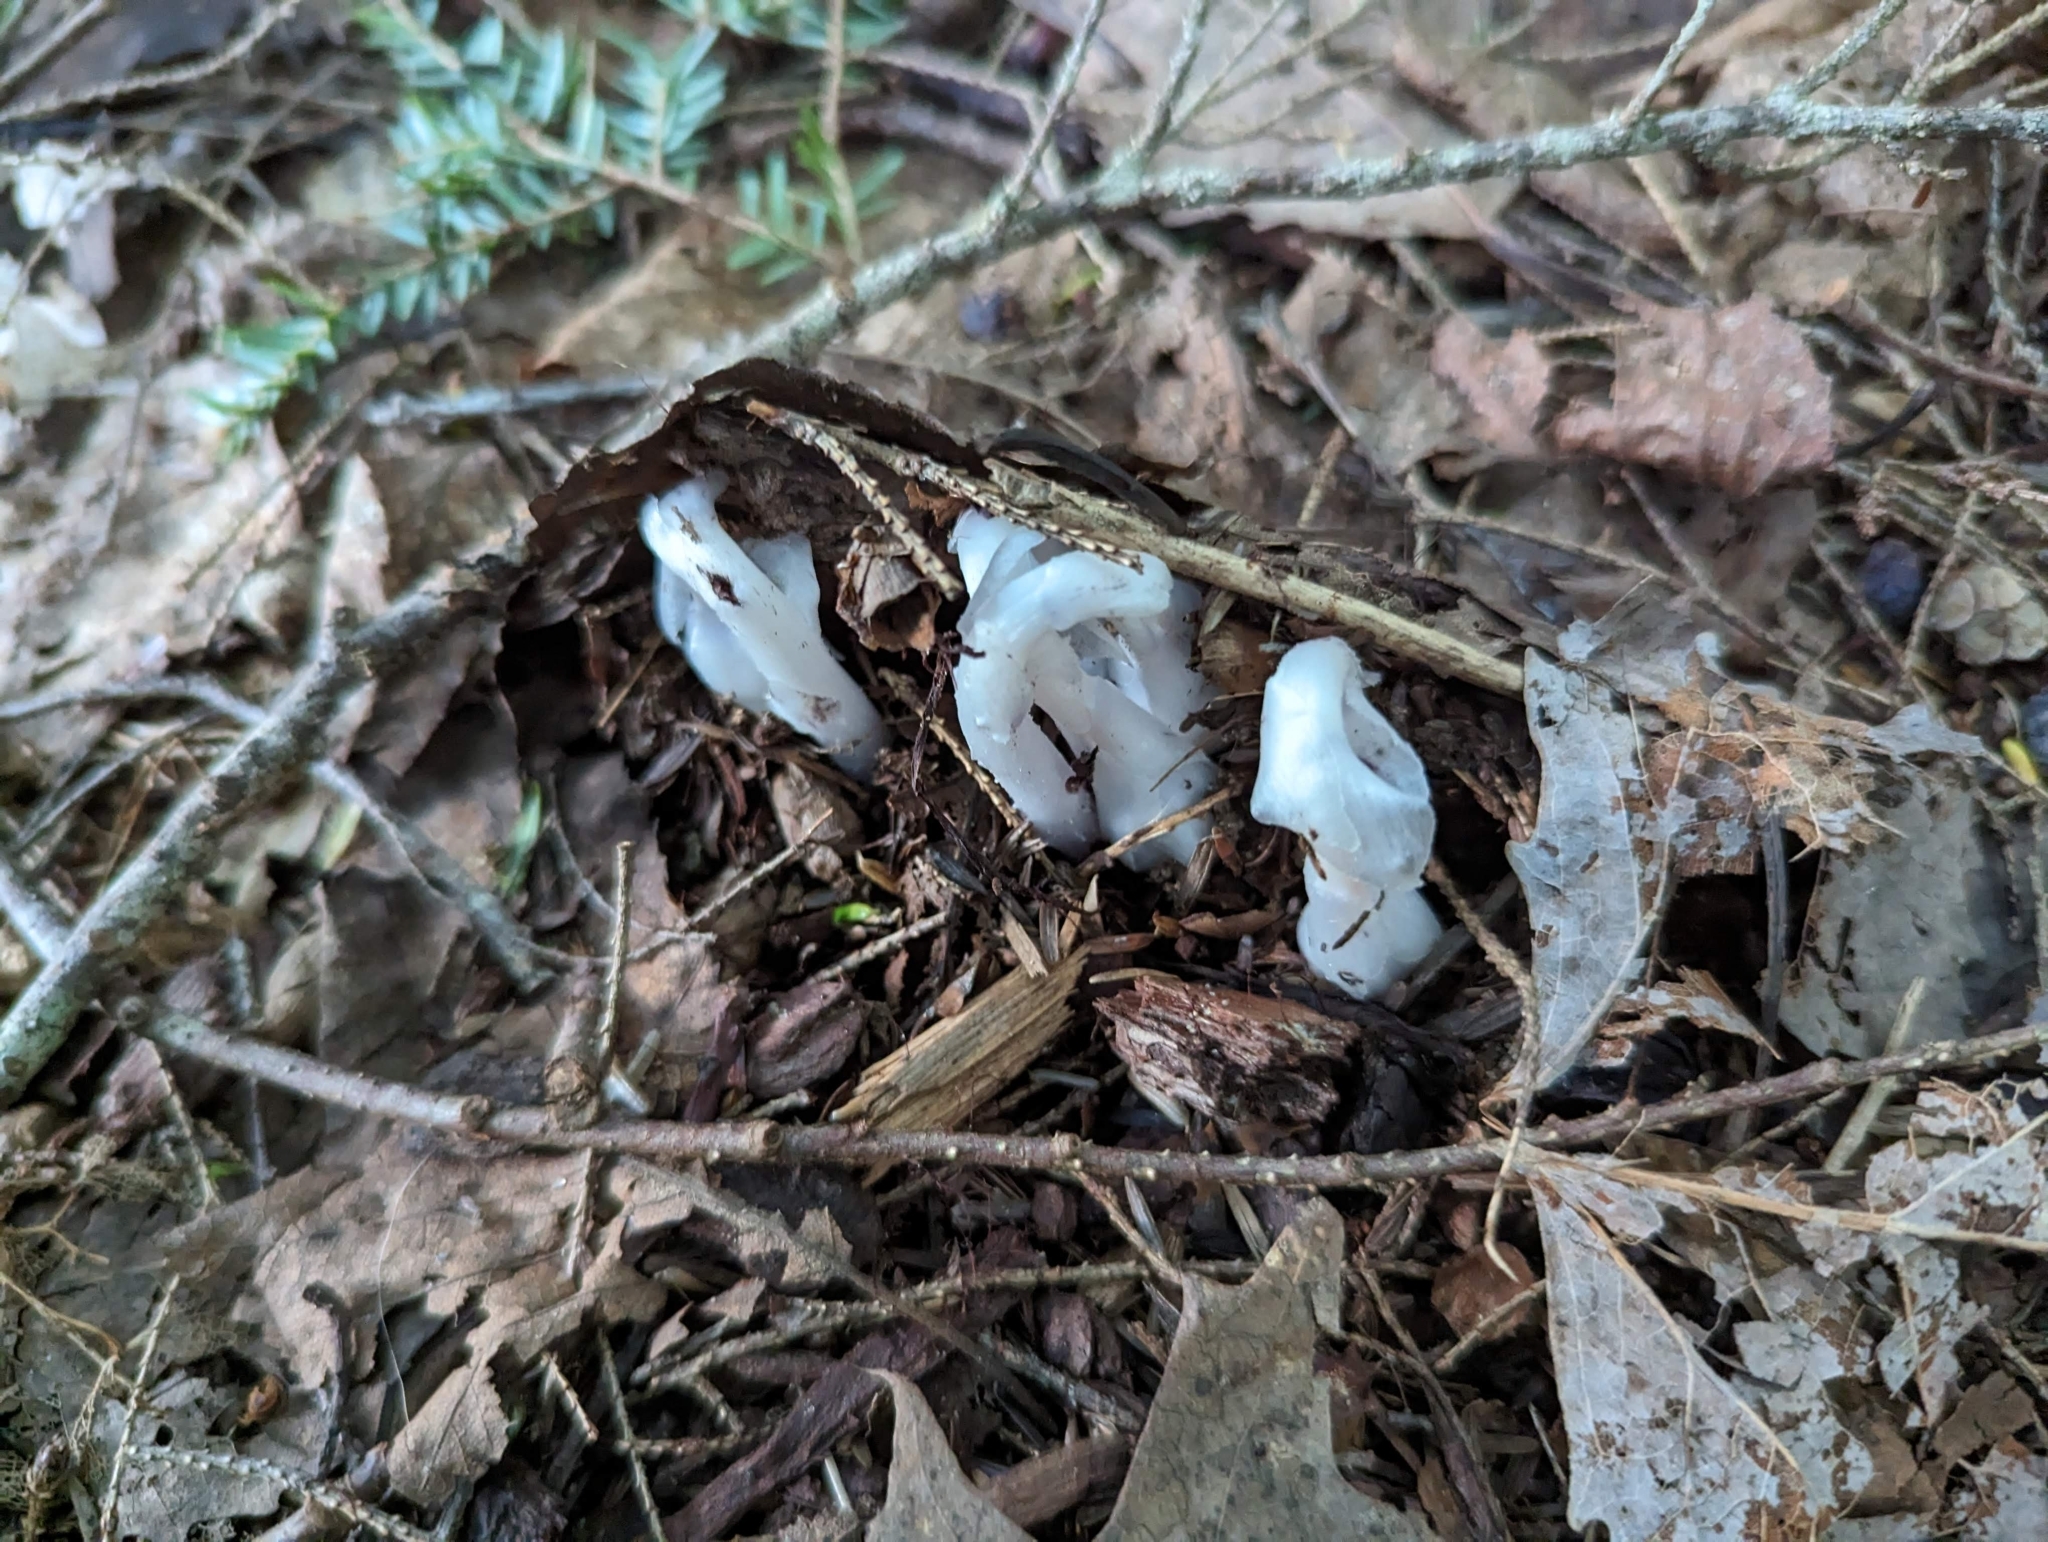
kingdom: Plantae
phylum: Tracheophyta
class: Magnoliopsida
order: Ericales
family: Ericaceae
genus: Monotropa
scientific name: Monotropa uniflora
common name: Convulsion root
